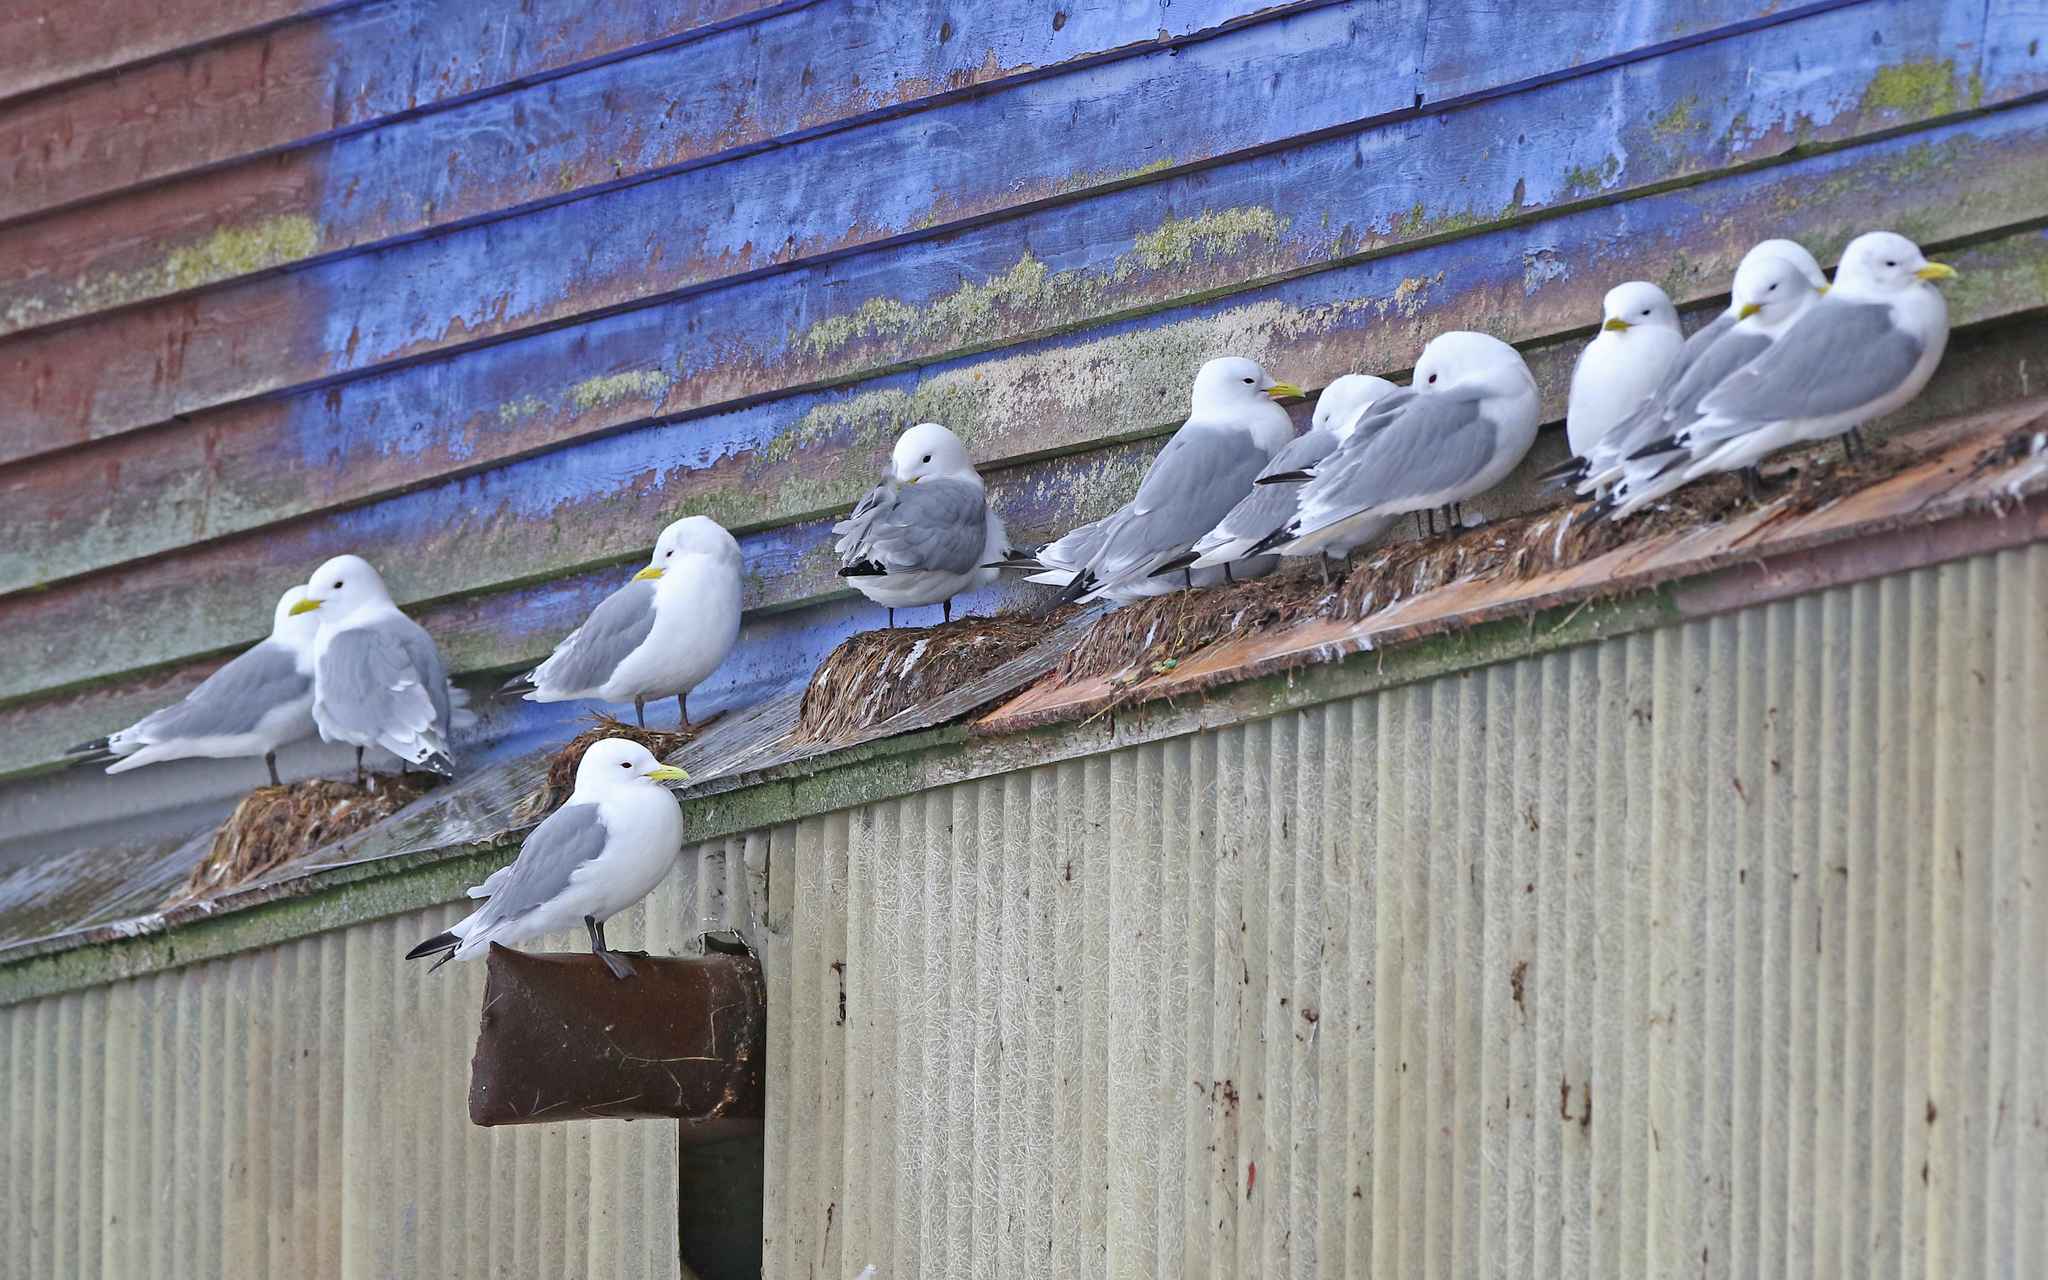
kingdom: Animalia
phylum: Chordata
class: Aves
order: Charadriiformes
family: Laridae
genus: Rissa
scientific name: Rissa tridactyla
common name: Black-legged kittiwake
